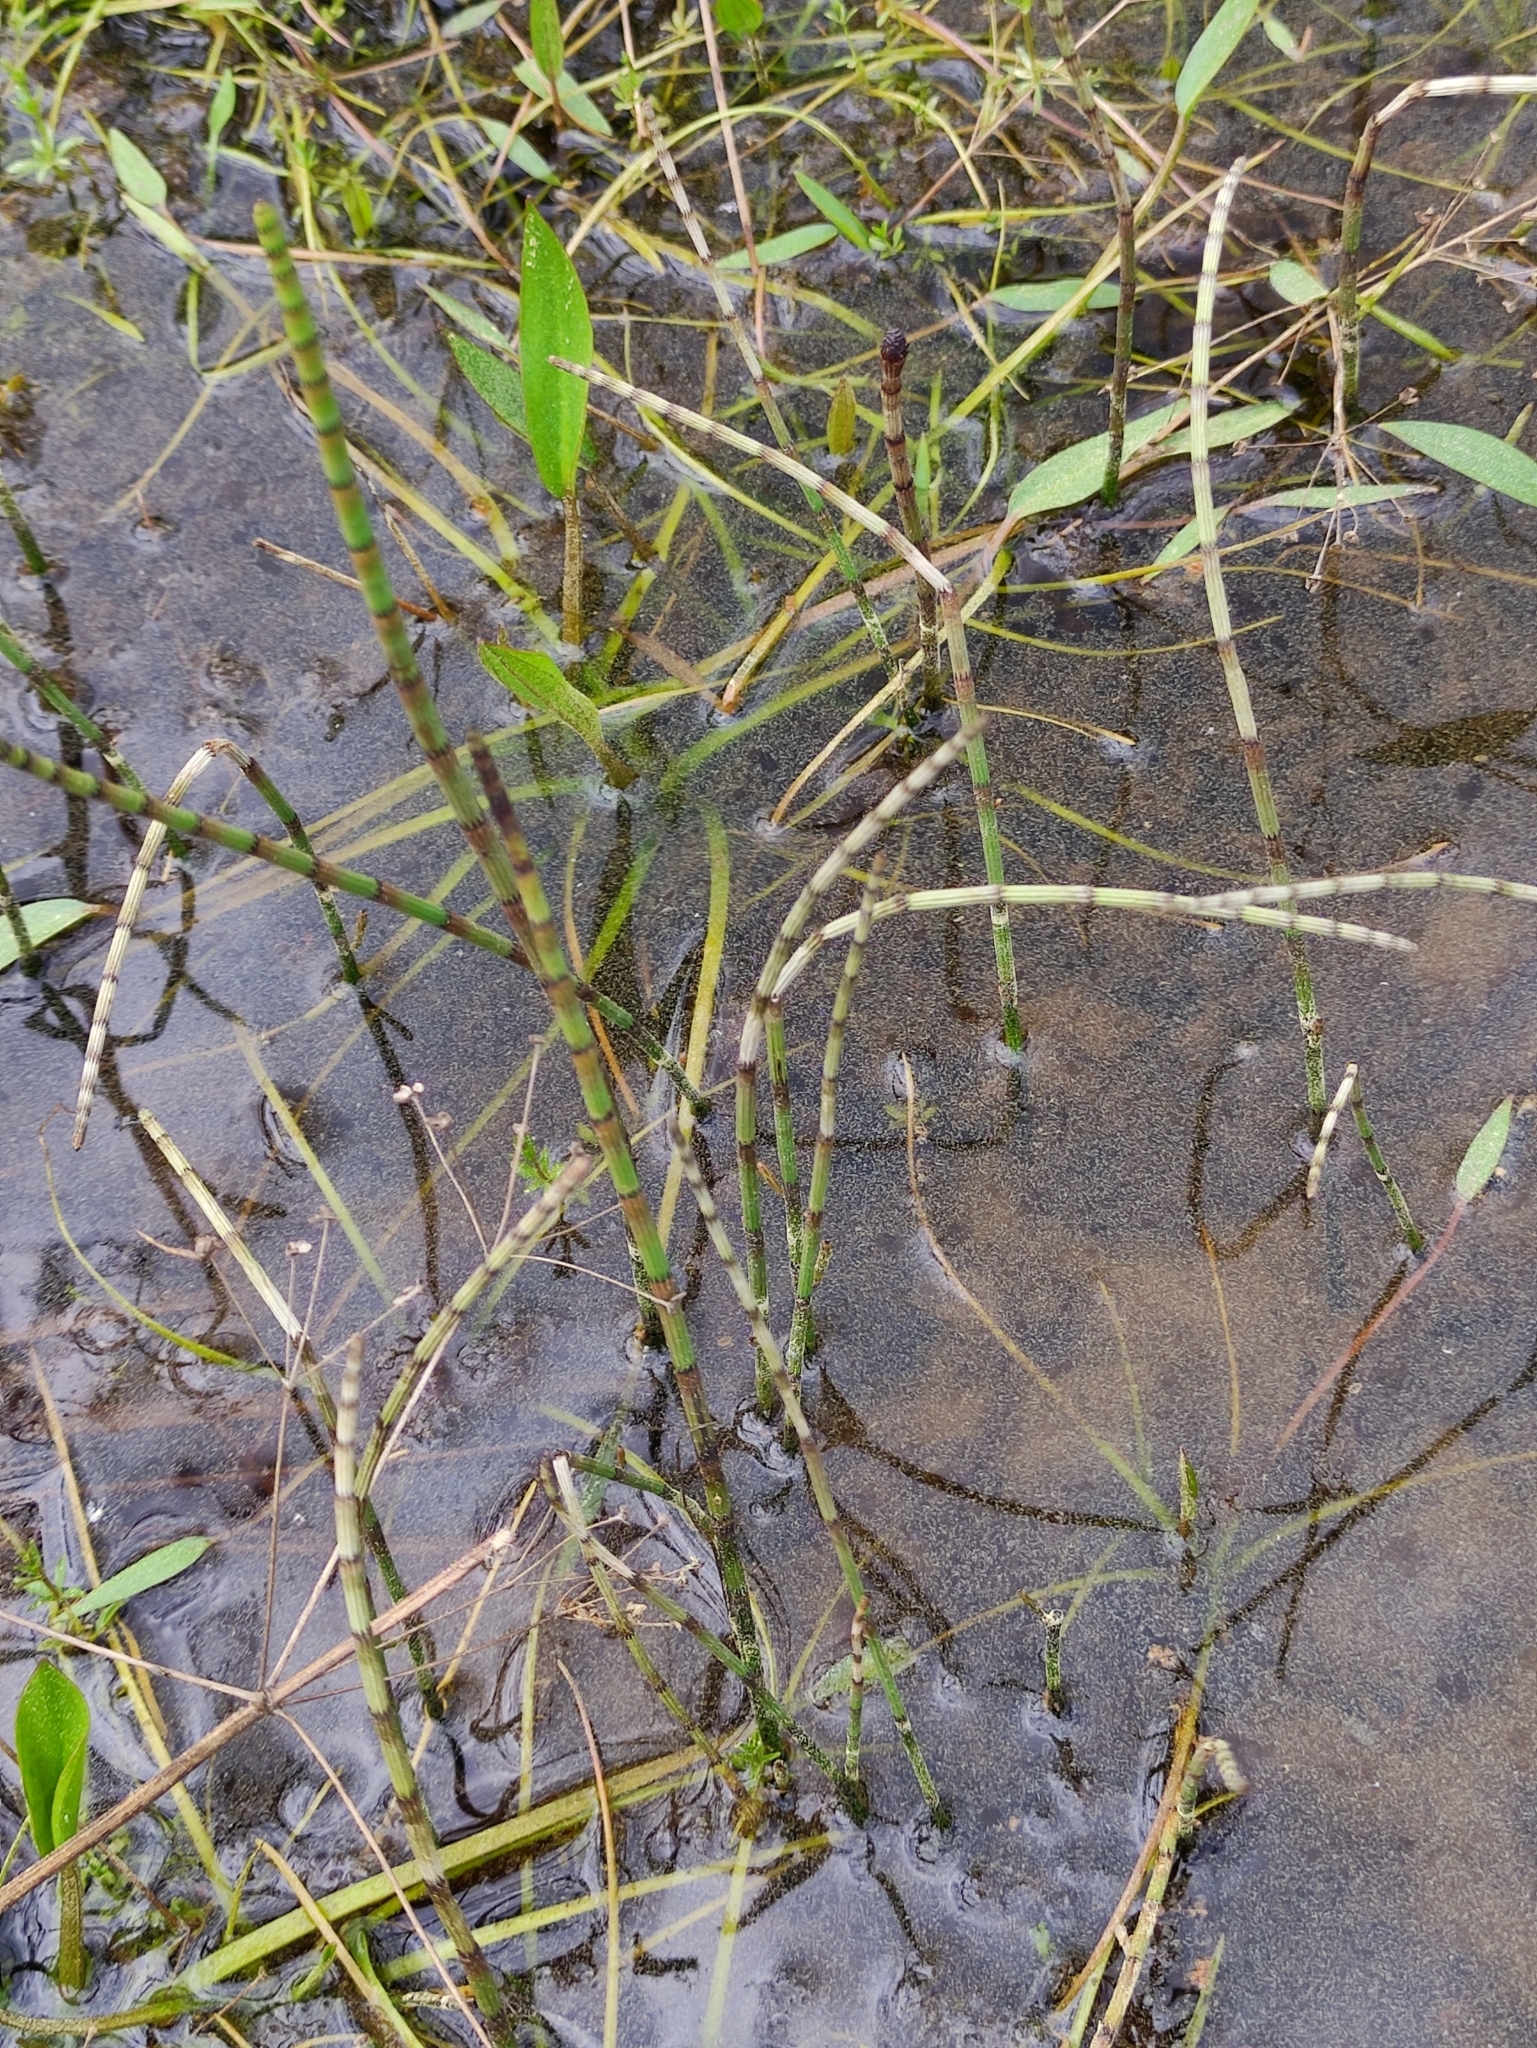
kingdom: Plantae
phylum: Tracheophyta
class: Polypodiopsida
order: Equisetales
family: Equisetaceae
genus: Equisetum
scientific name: Equisetum fluviatile
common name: Water horsetail
